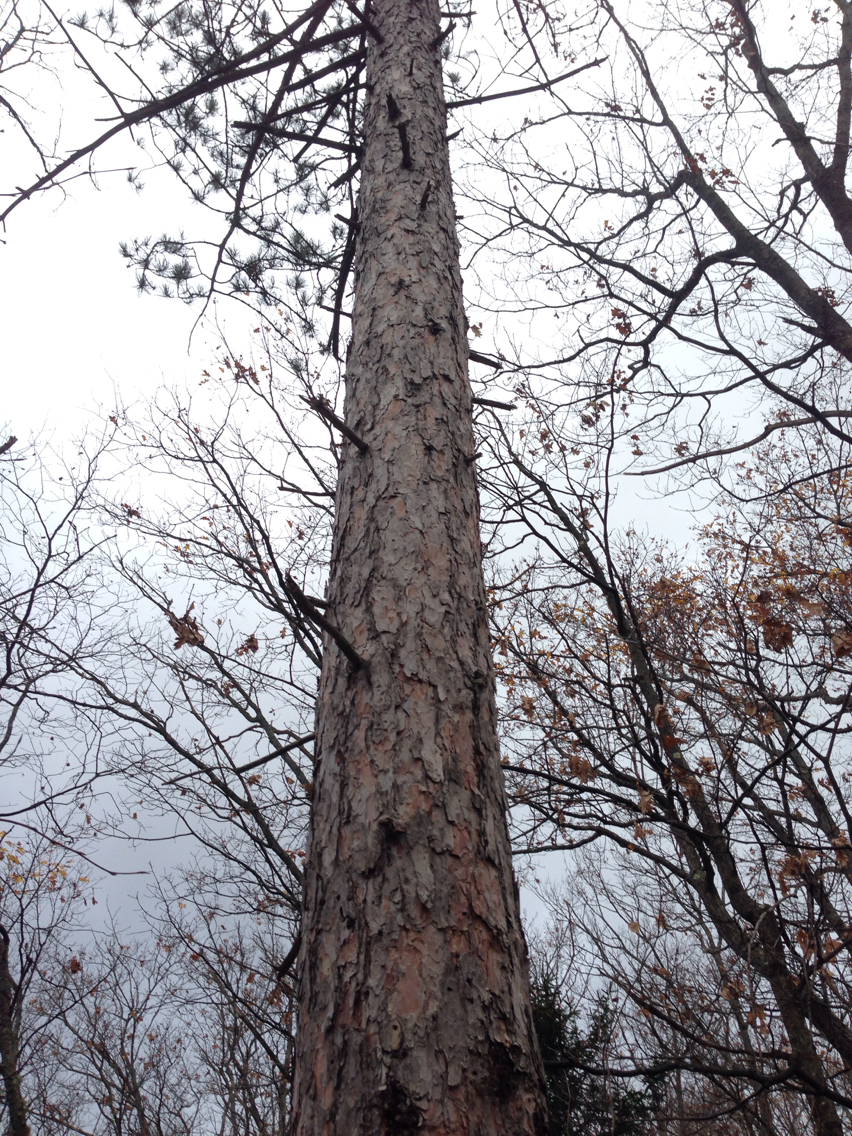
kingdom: Plantae
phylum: Tracheophyta
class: Pinopsida
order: Pinales
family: Pinaceae
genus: Pinus
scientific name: Pinus resinosa
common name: Norway pine
